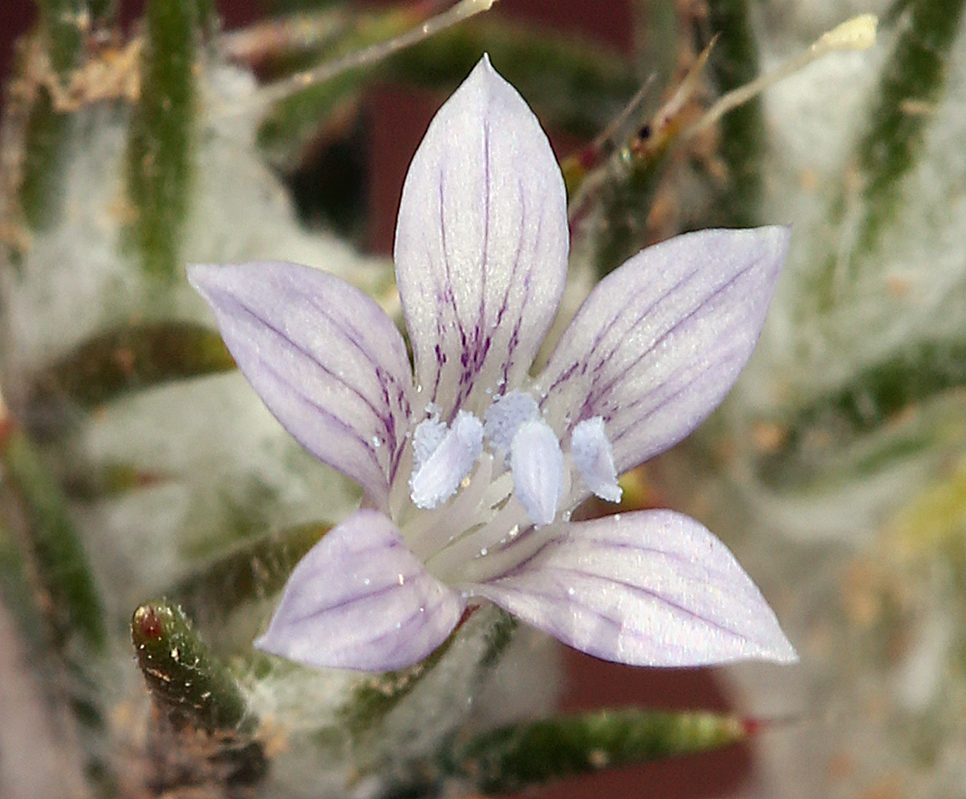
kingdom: Plantae
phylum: Tracheophyta
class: Magnoliopsida
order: Ericales
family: Polemoniaceae
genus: Eriastrum
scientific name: Eriastrum wilcoxii
